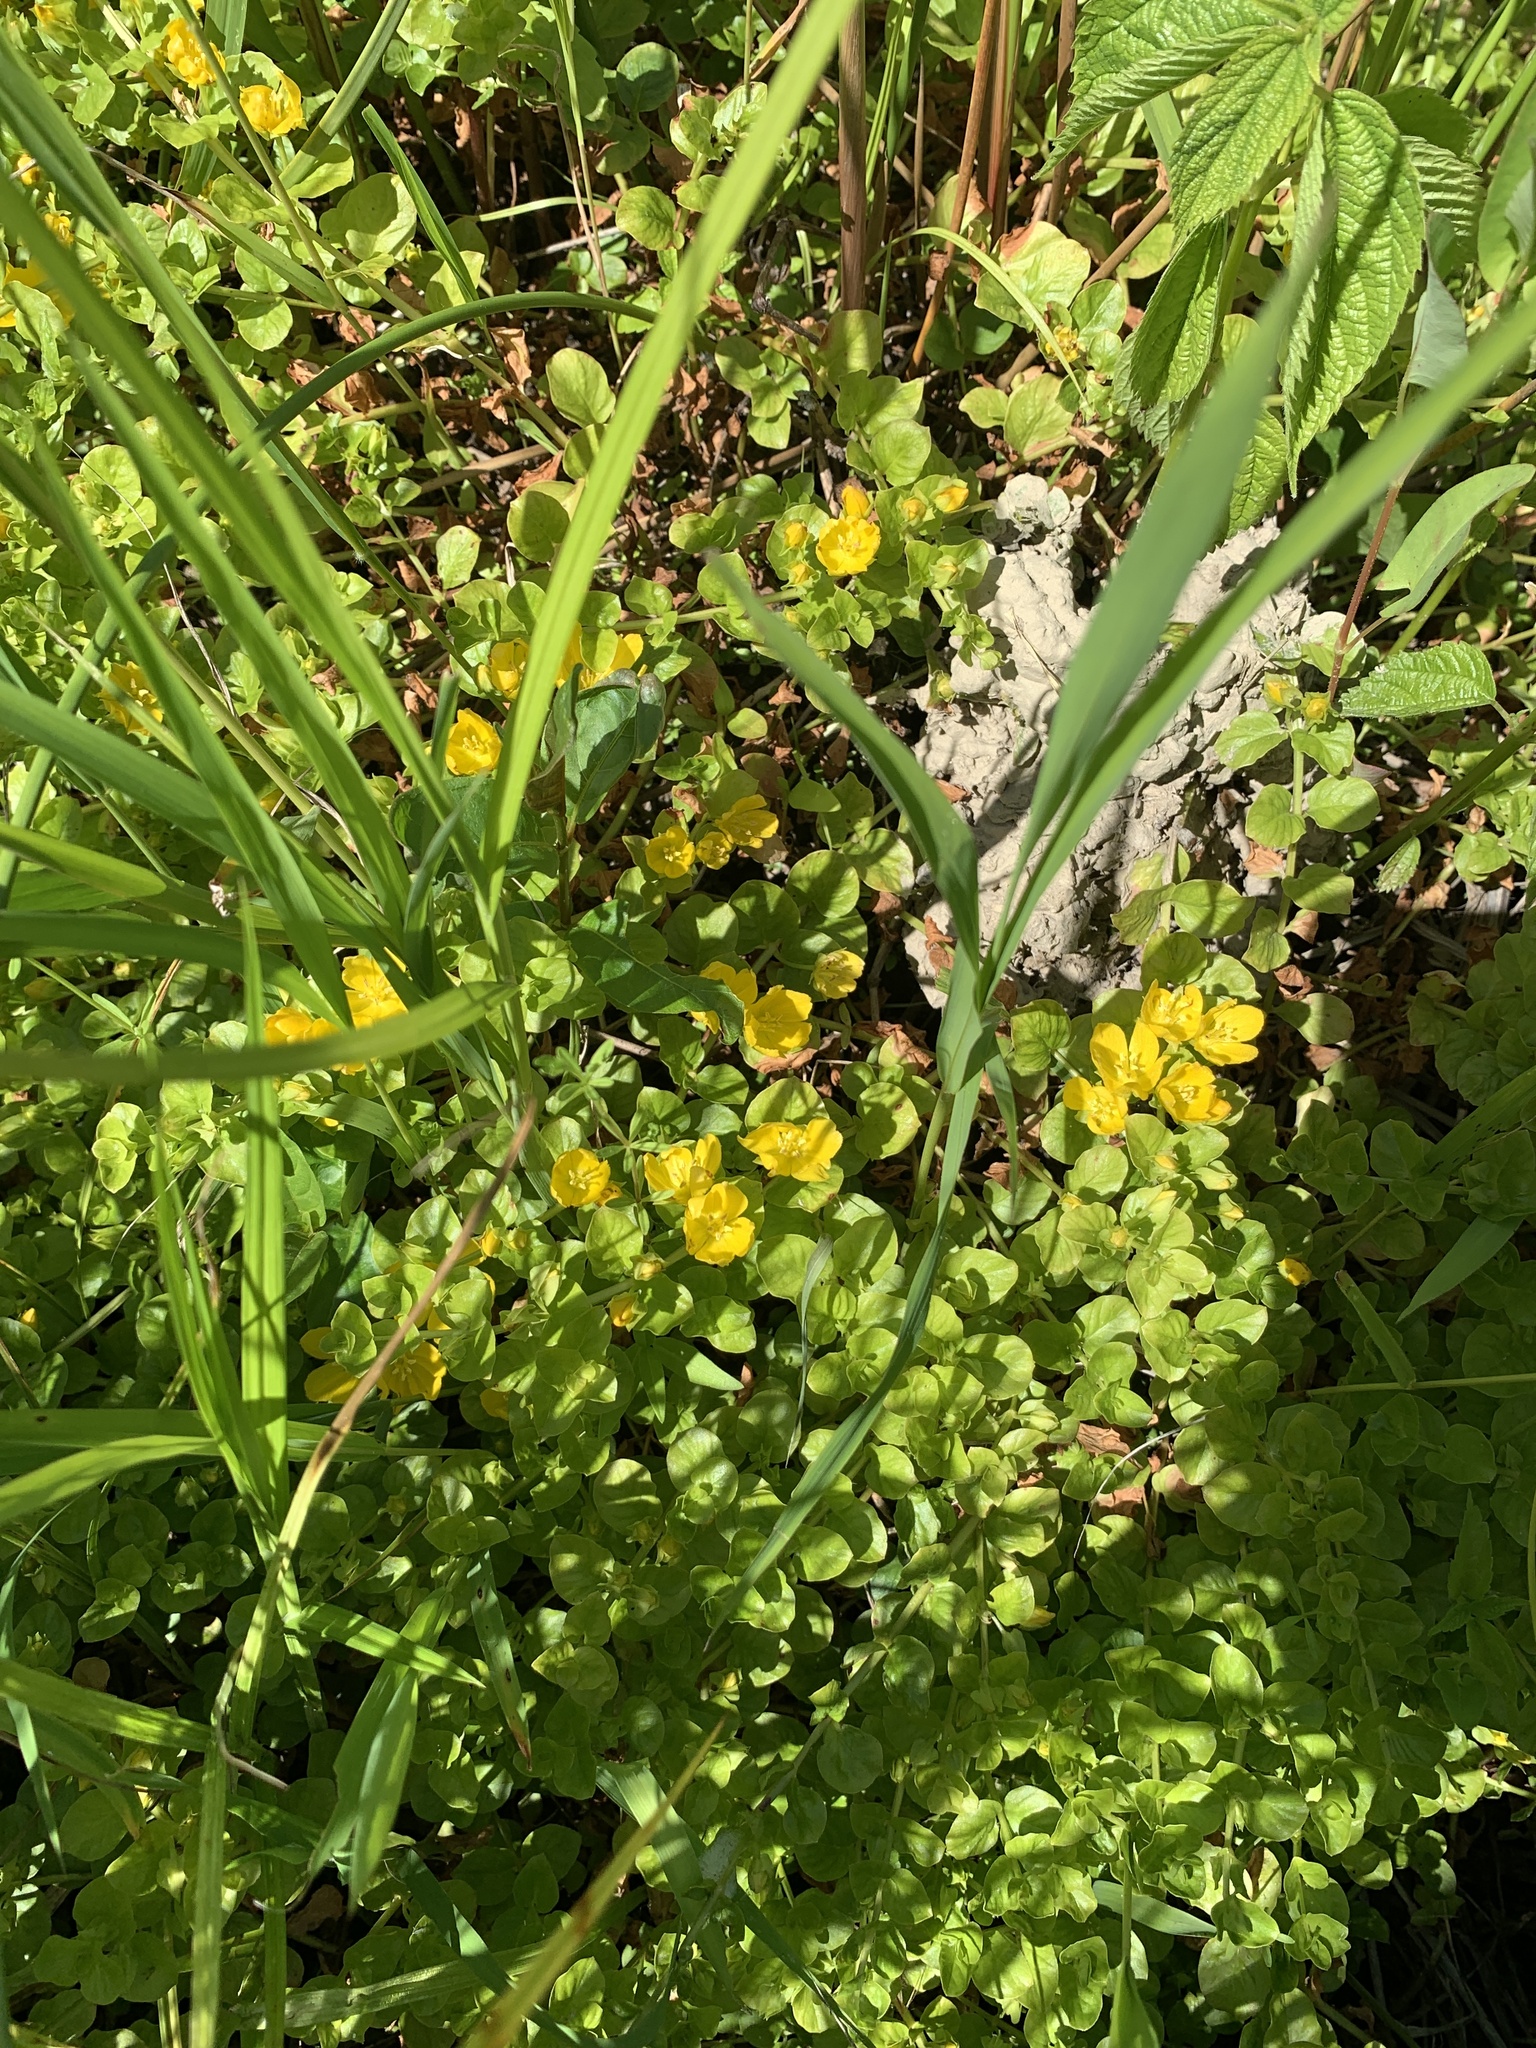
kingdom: Plantae
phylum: Tracheophyta
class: Magnoliopsida
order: Ericales
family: Primulaceae
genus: Lysimachia
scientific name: Lysimachia nummularia
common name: Moneywort
